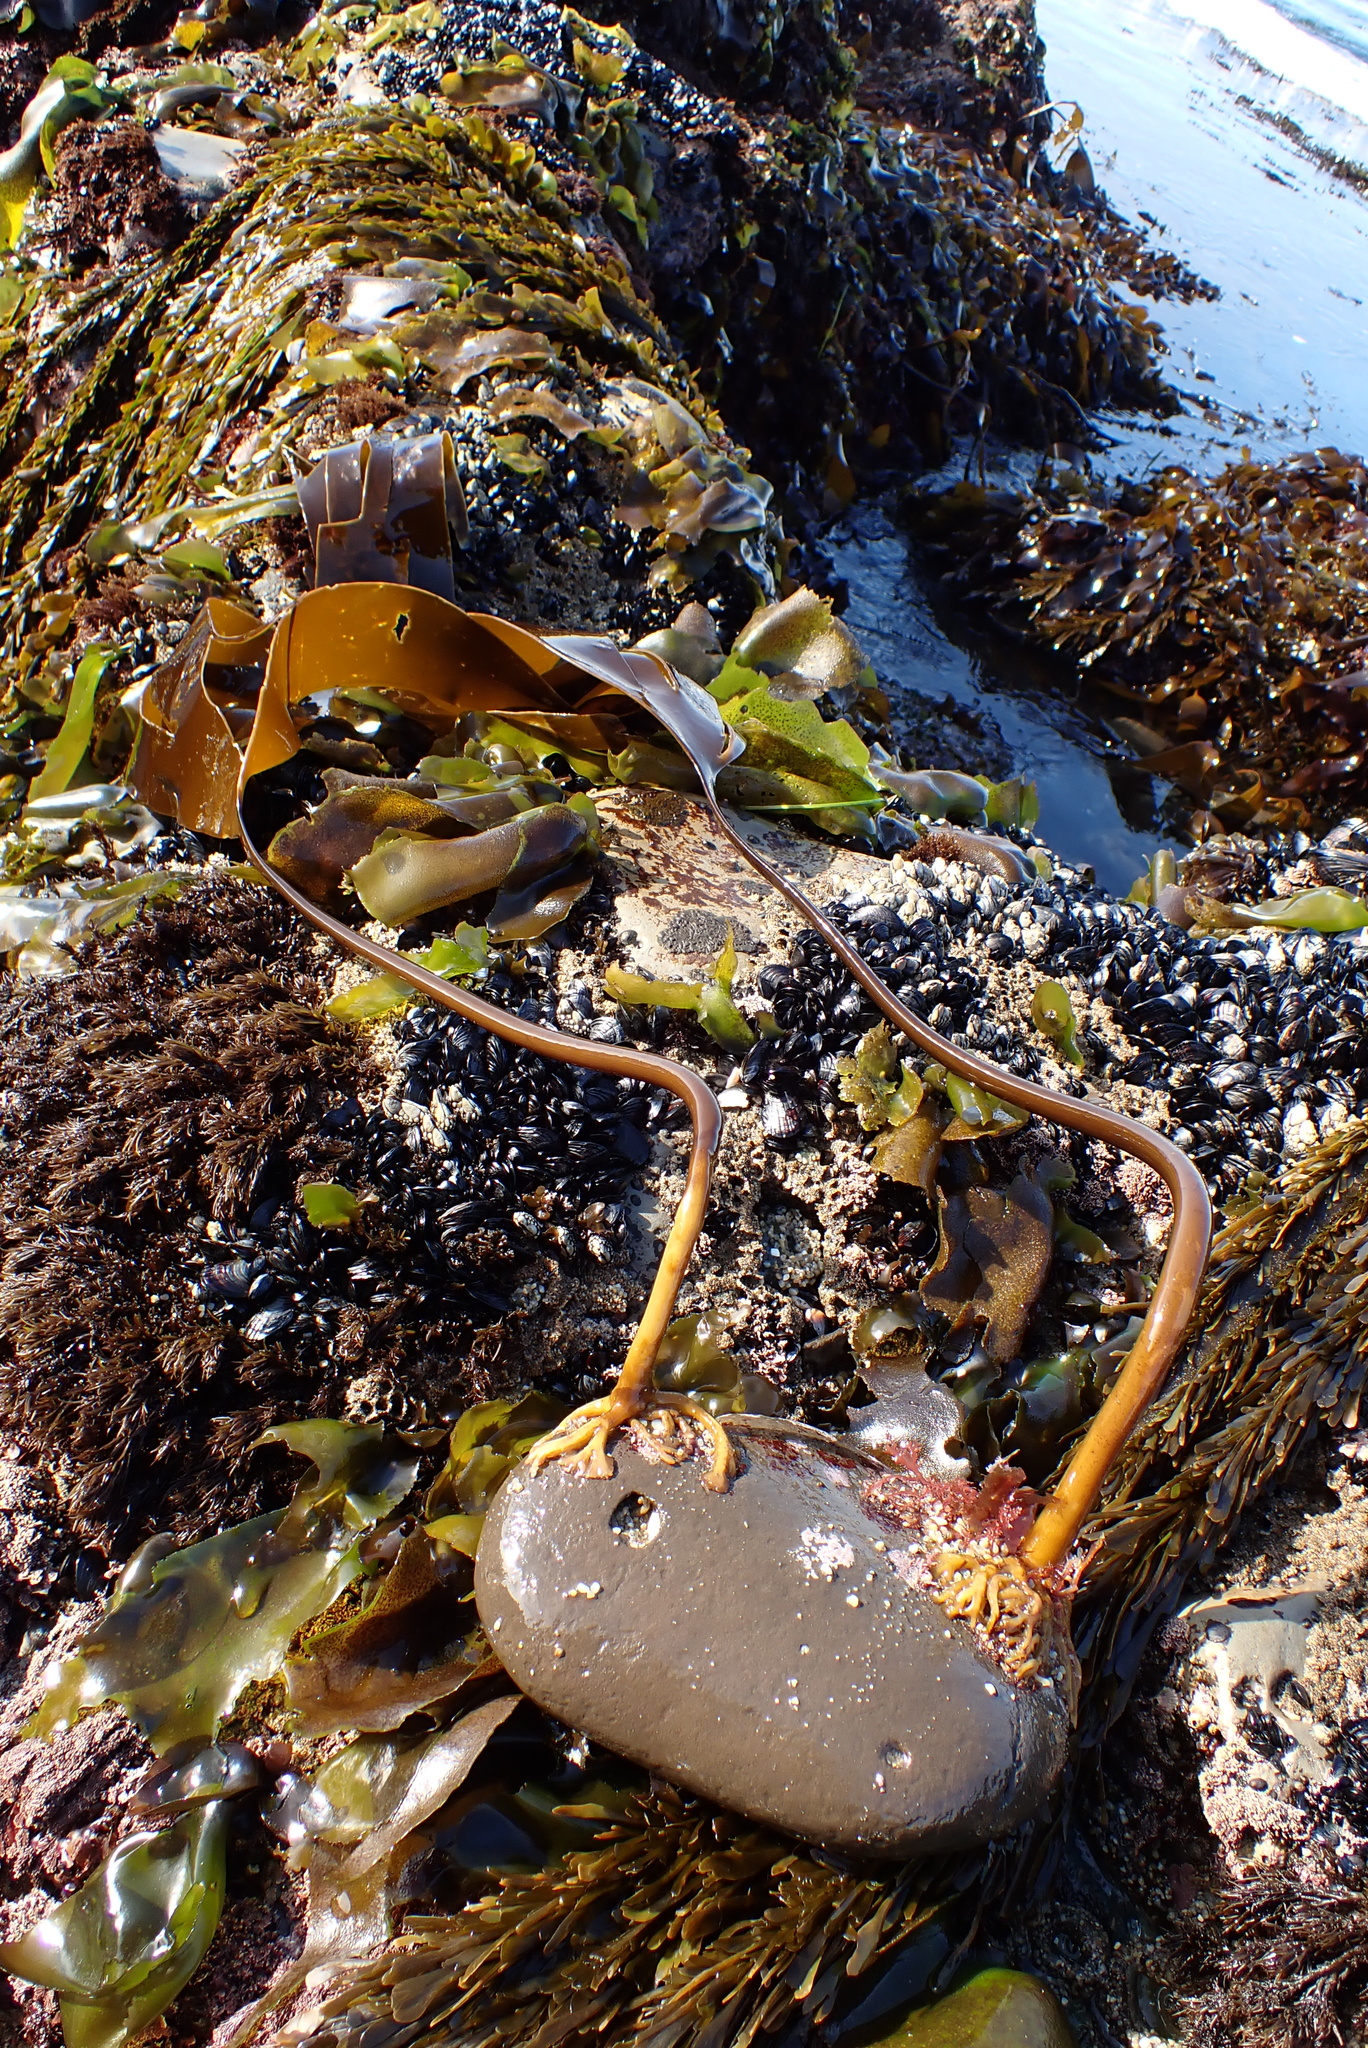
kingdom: Chromista
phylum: Ochrophyta
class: Phaeophyceae
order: Laminariales
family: Laminariaceae
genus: Laminaria
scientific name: Laminaria setchellii
